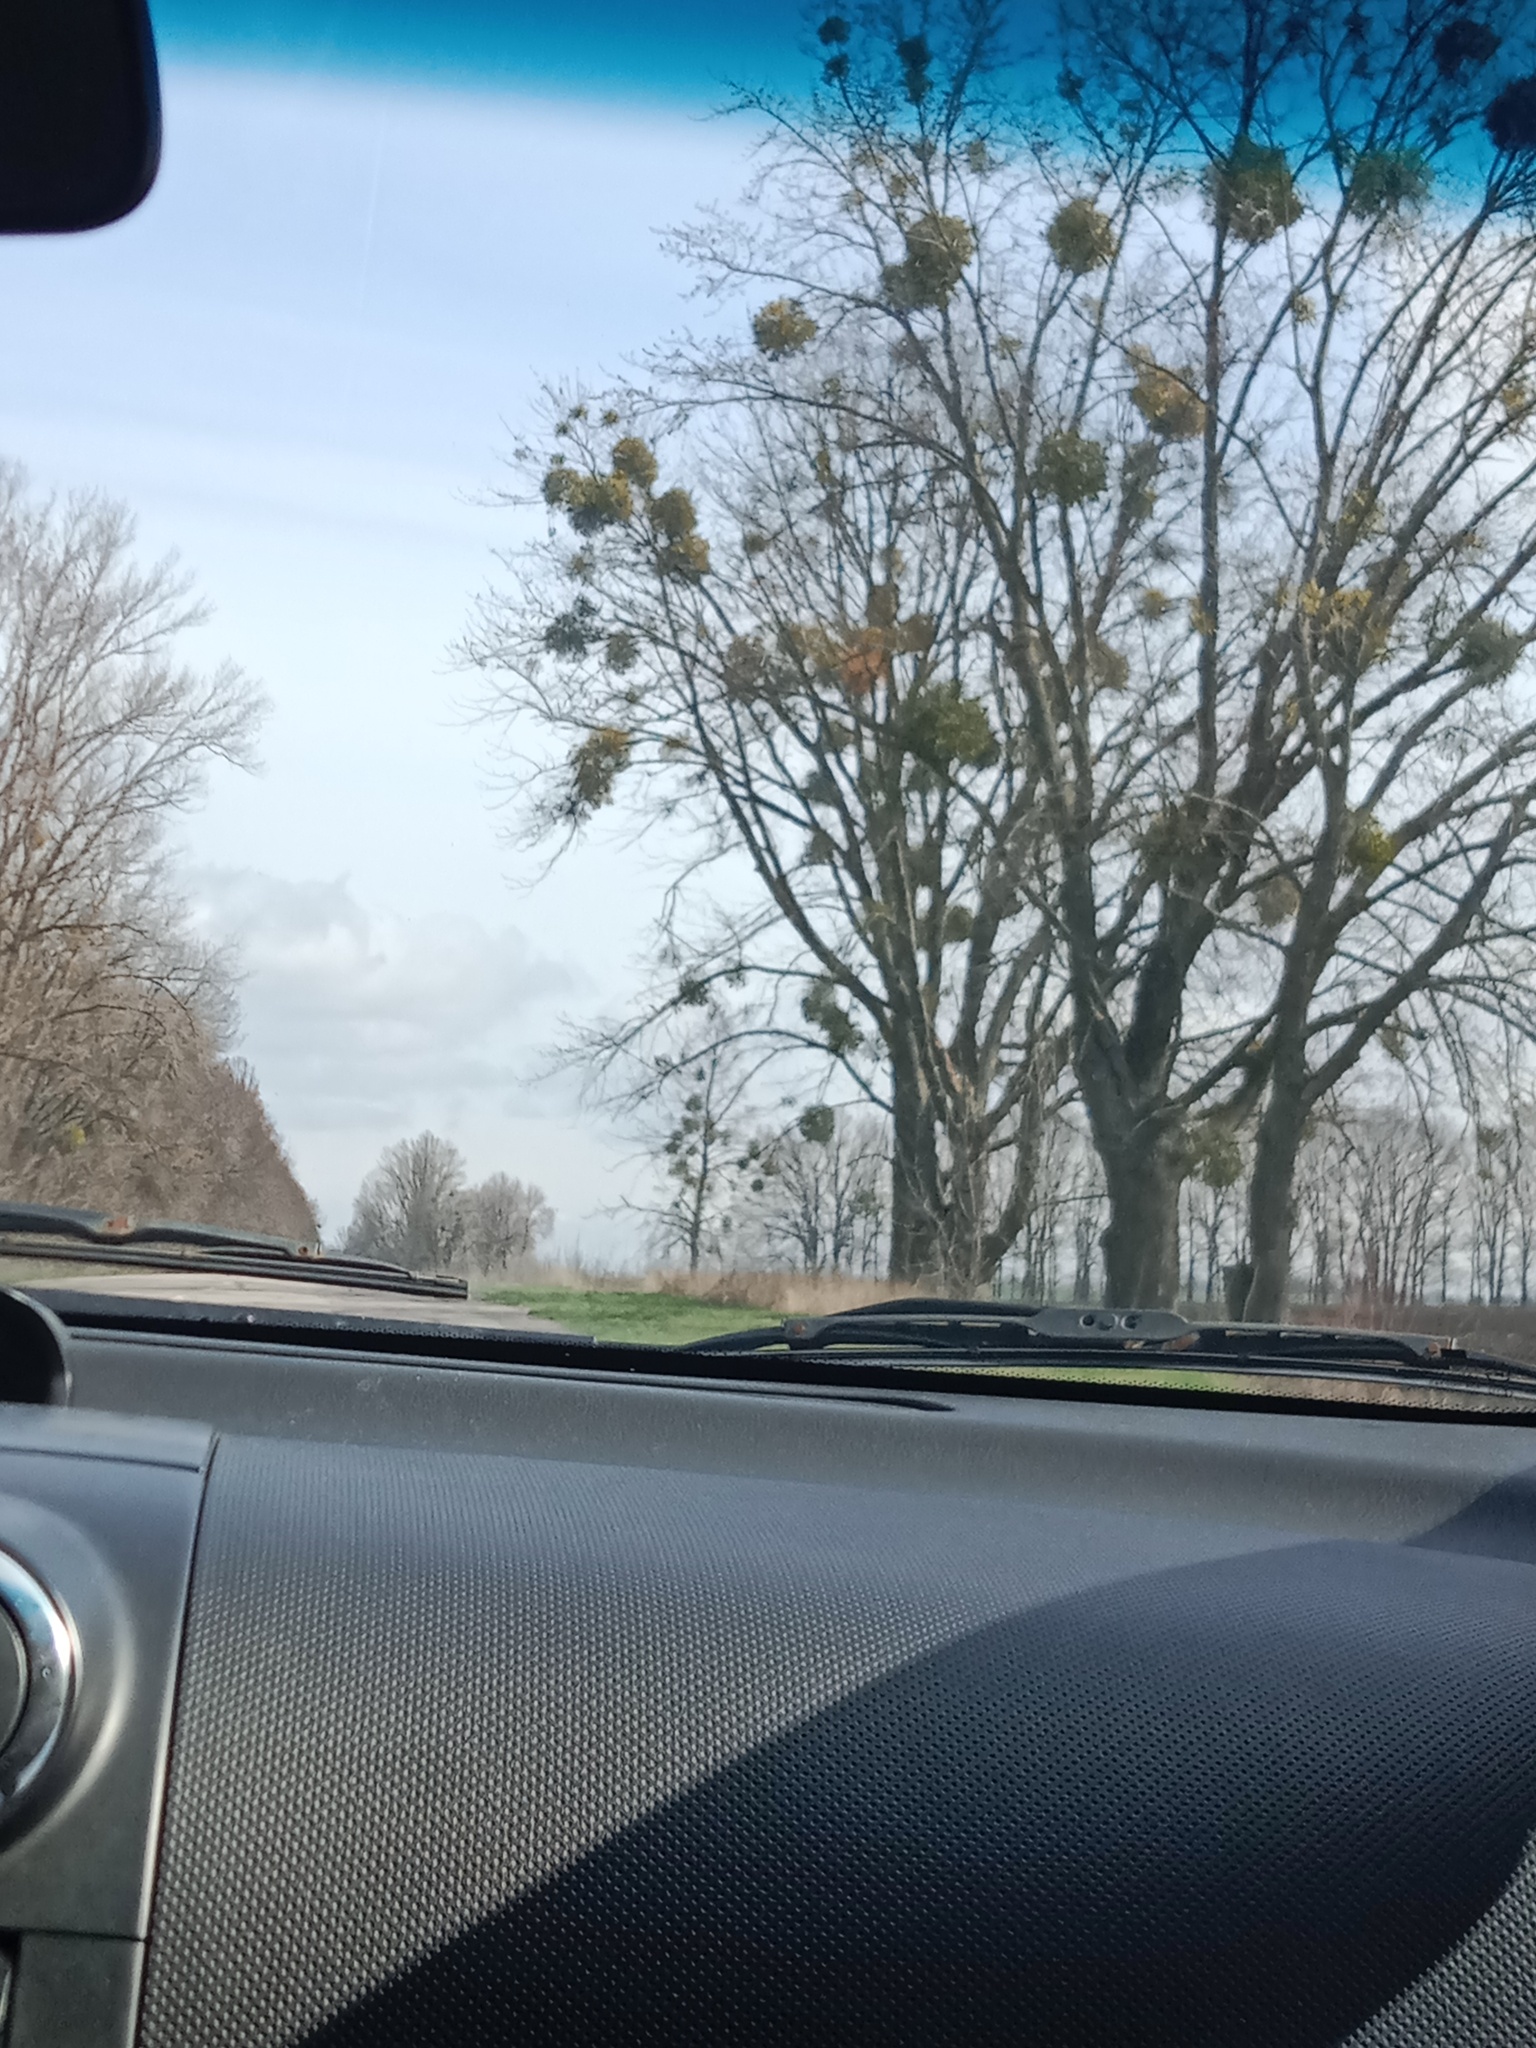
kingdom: Plantae
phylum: Tracheophyta
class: Magnoliopsida
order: Santalales
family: Viscaceae
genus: Viscum
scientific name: Viscum album
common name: Mistletoe
